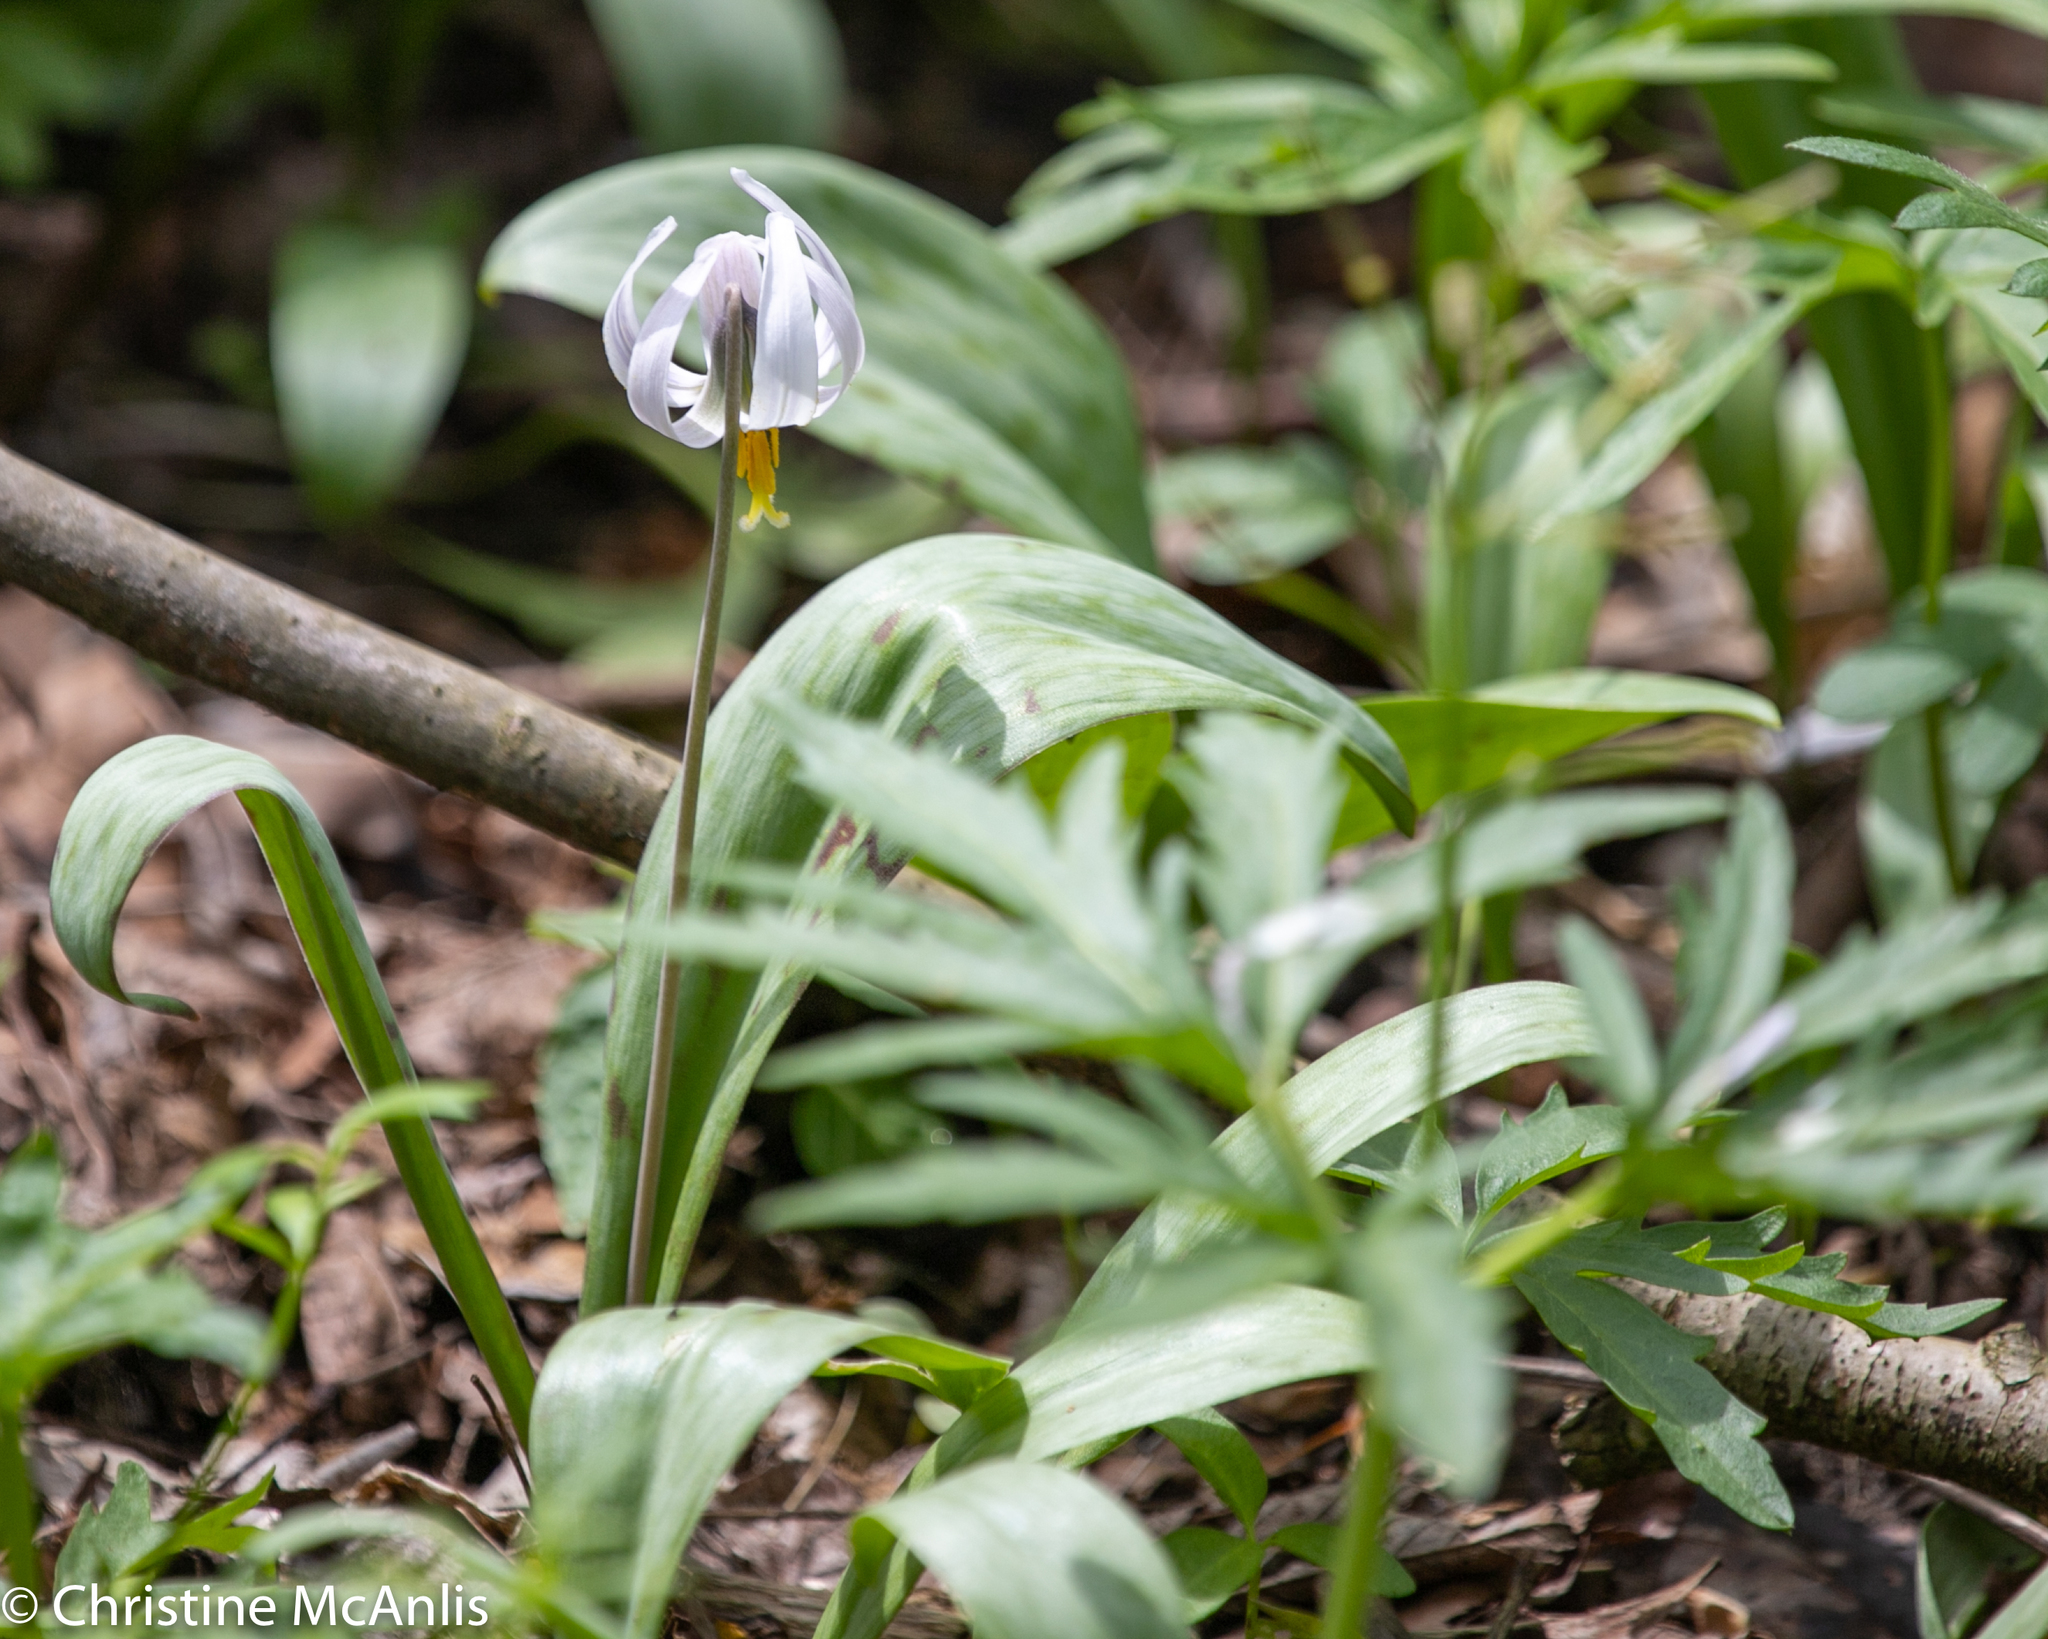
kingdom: Plantae
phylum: Tracheophyta
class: Liliopsida
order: Liliales
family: Liliaceae
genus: Erythronium
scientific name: Erythronium albidum
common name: White trout-lily
